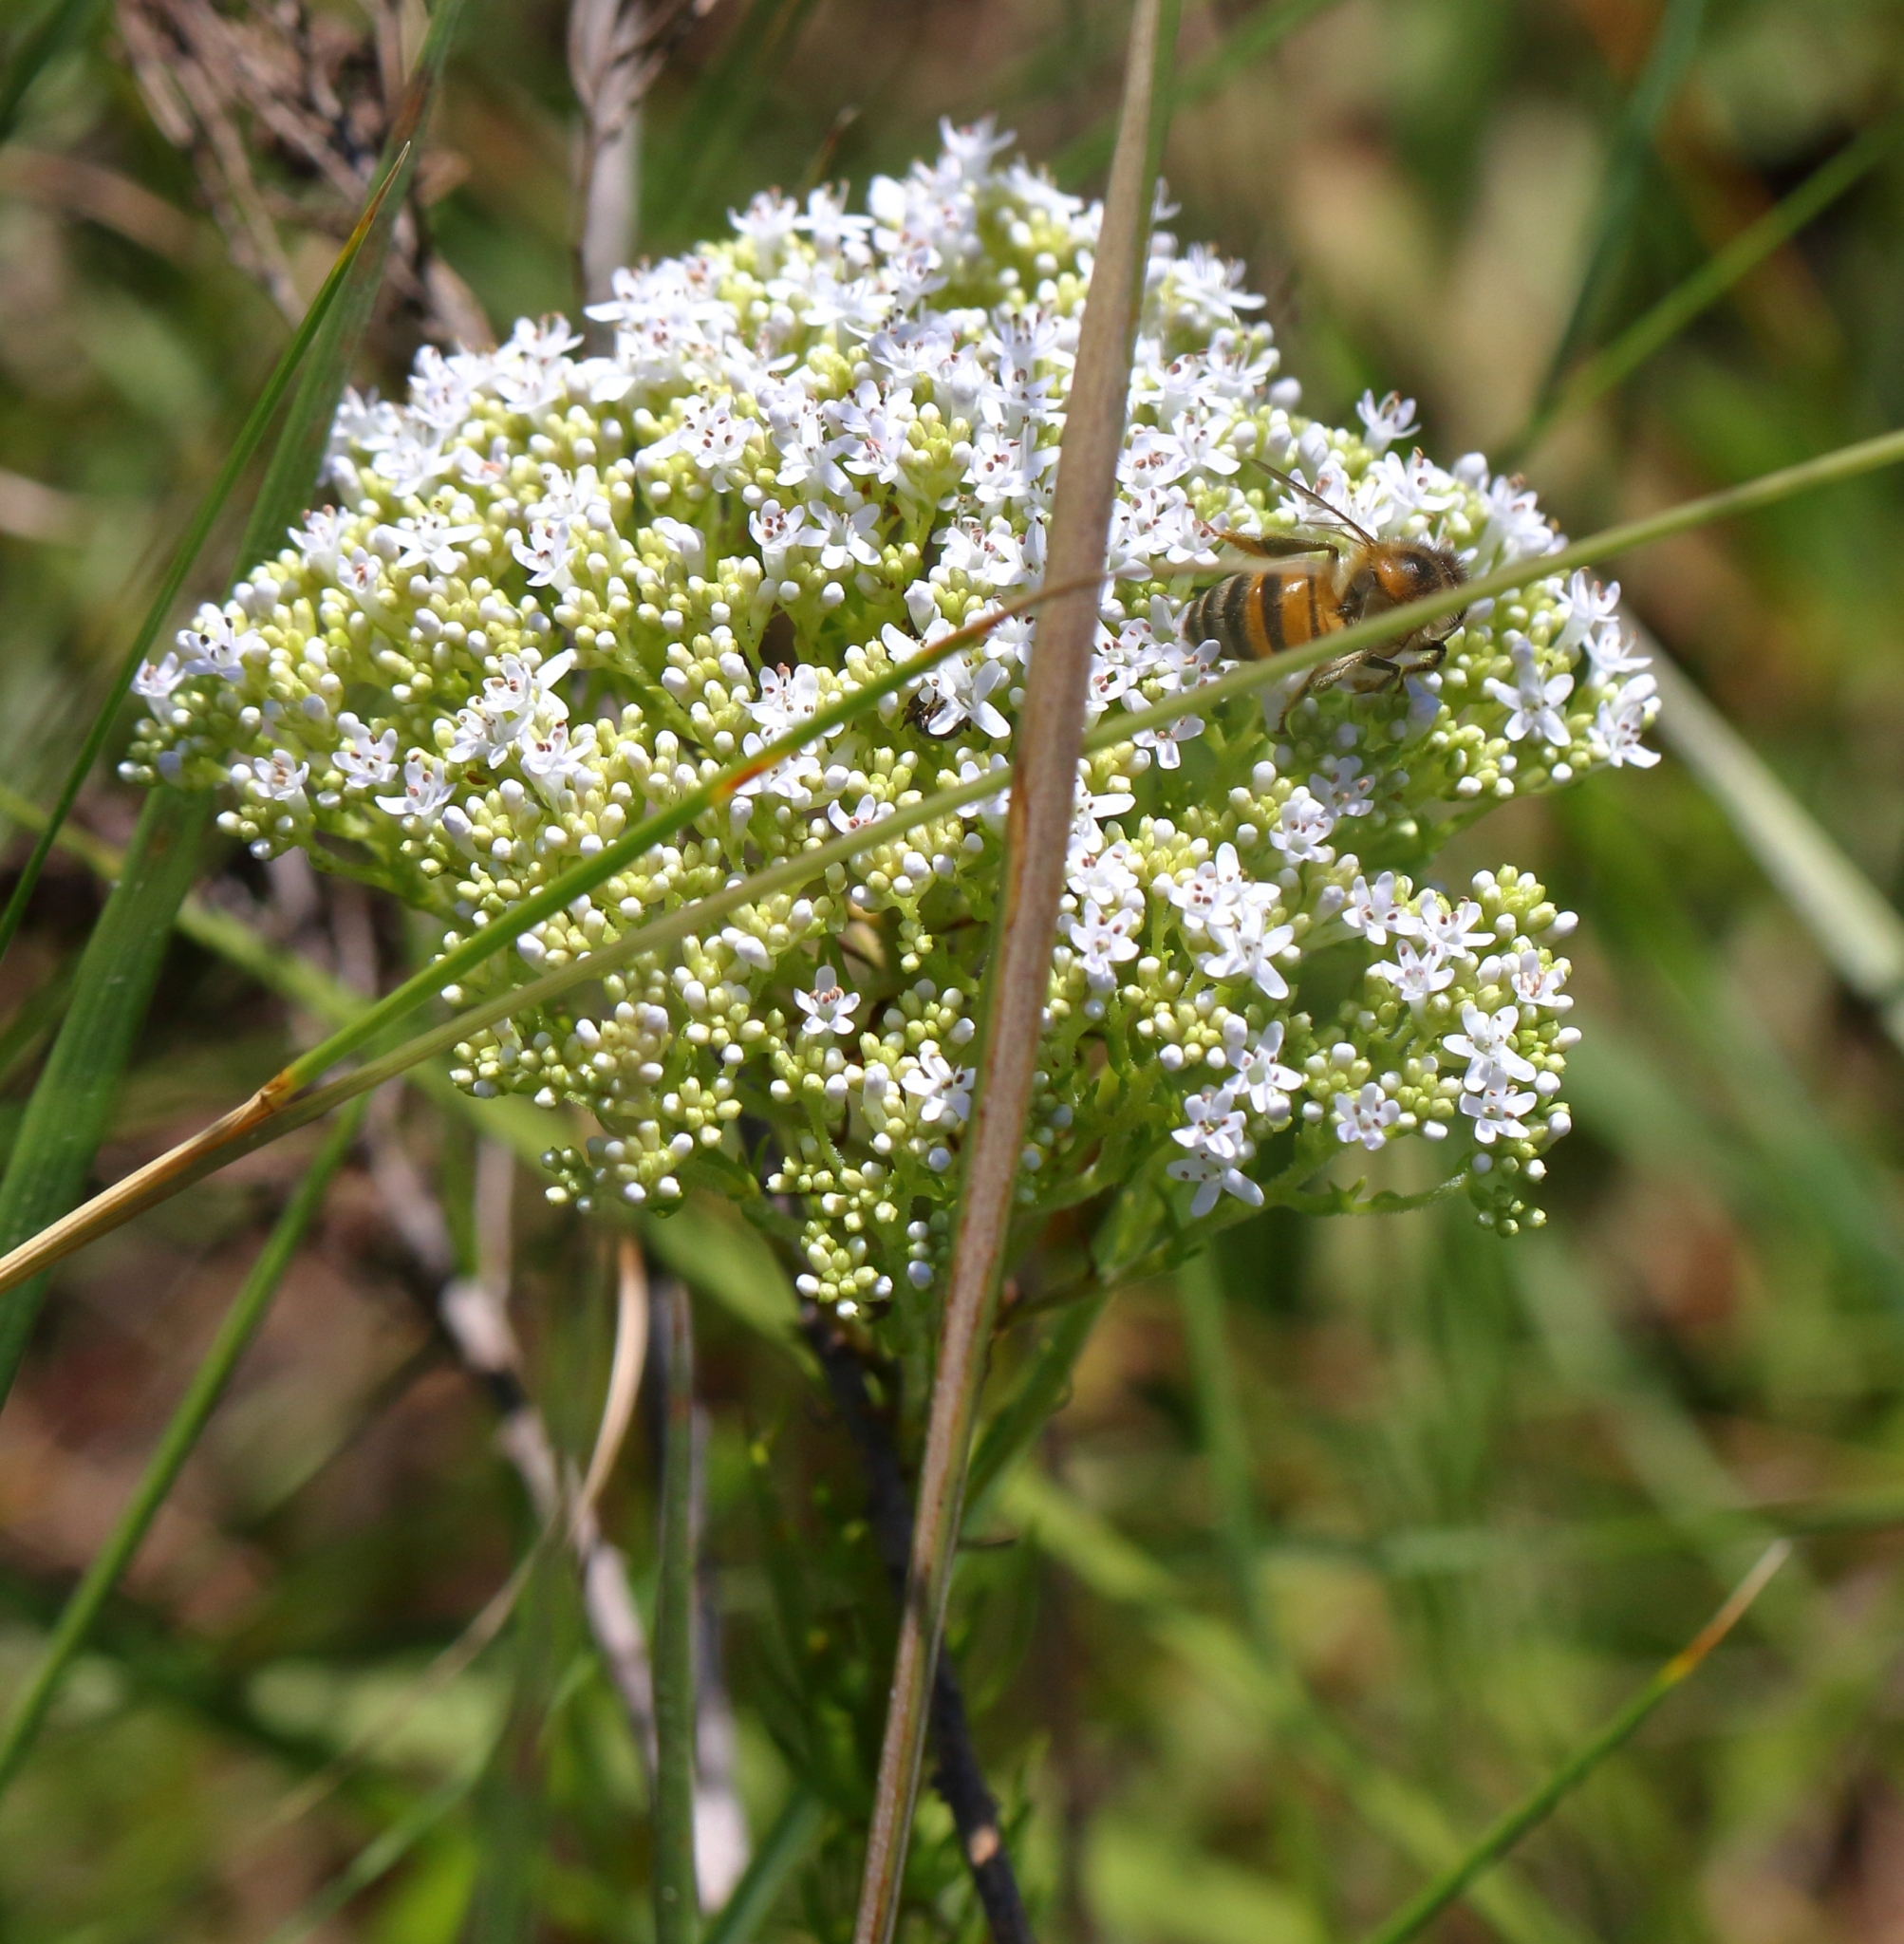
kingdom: Animalia
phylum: Arthropoda
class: Insecta
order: Hymenoptera
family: Apidae
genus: Apis
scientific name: Apis mellifera
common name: Honey bee
